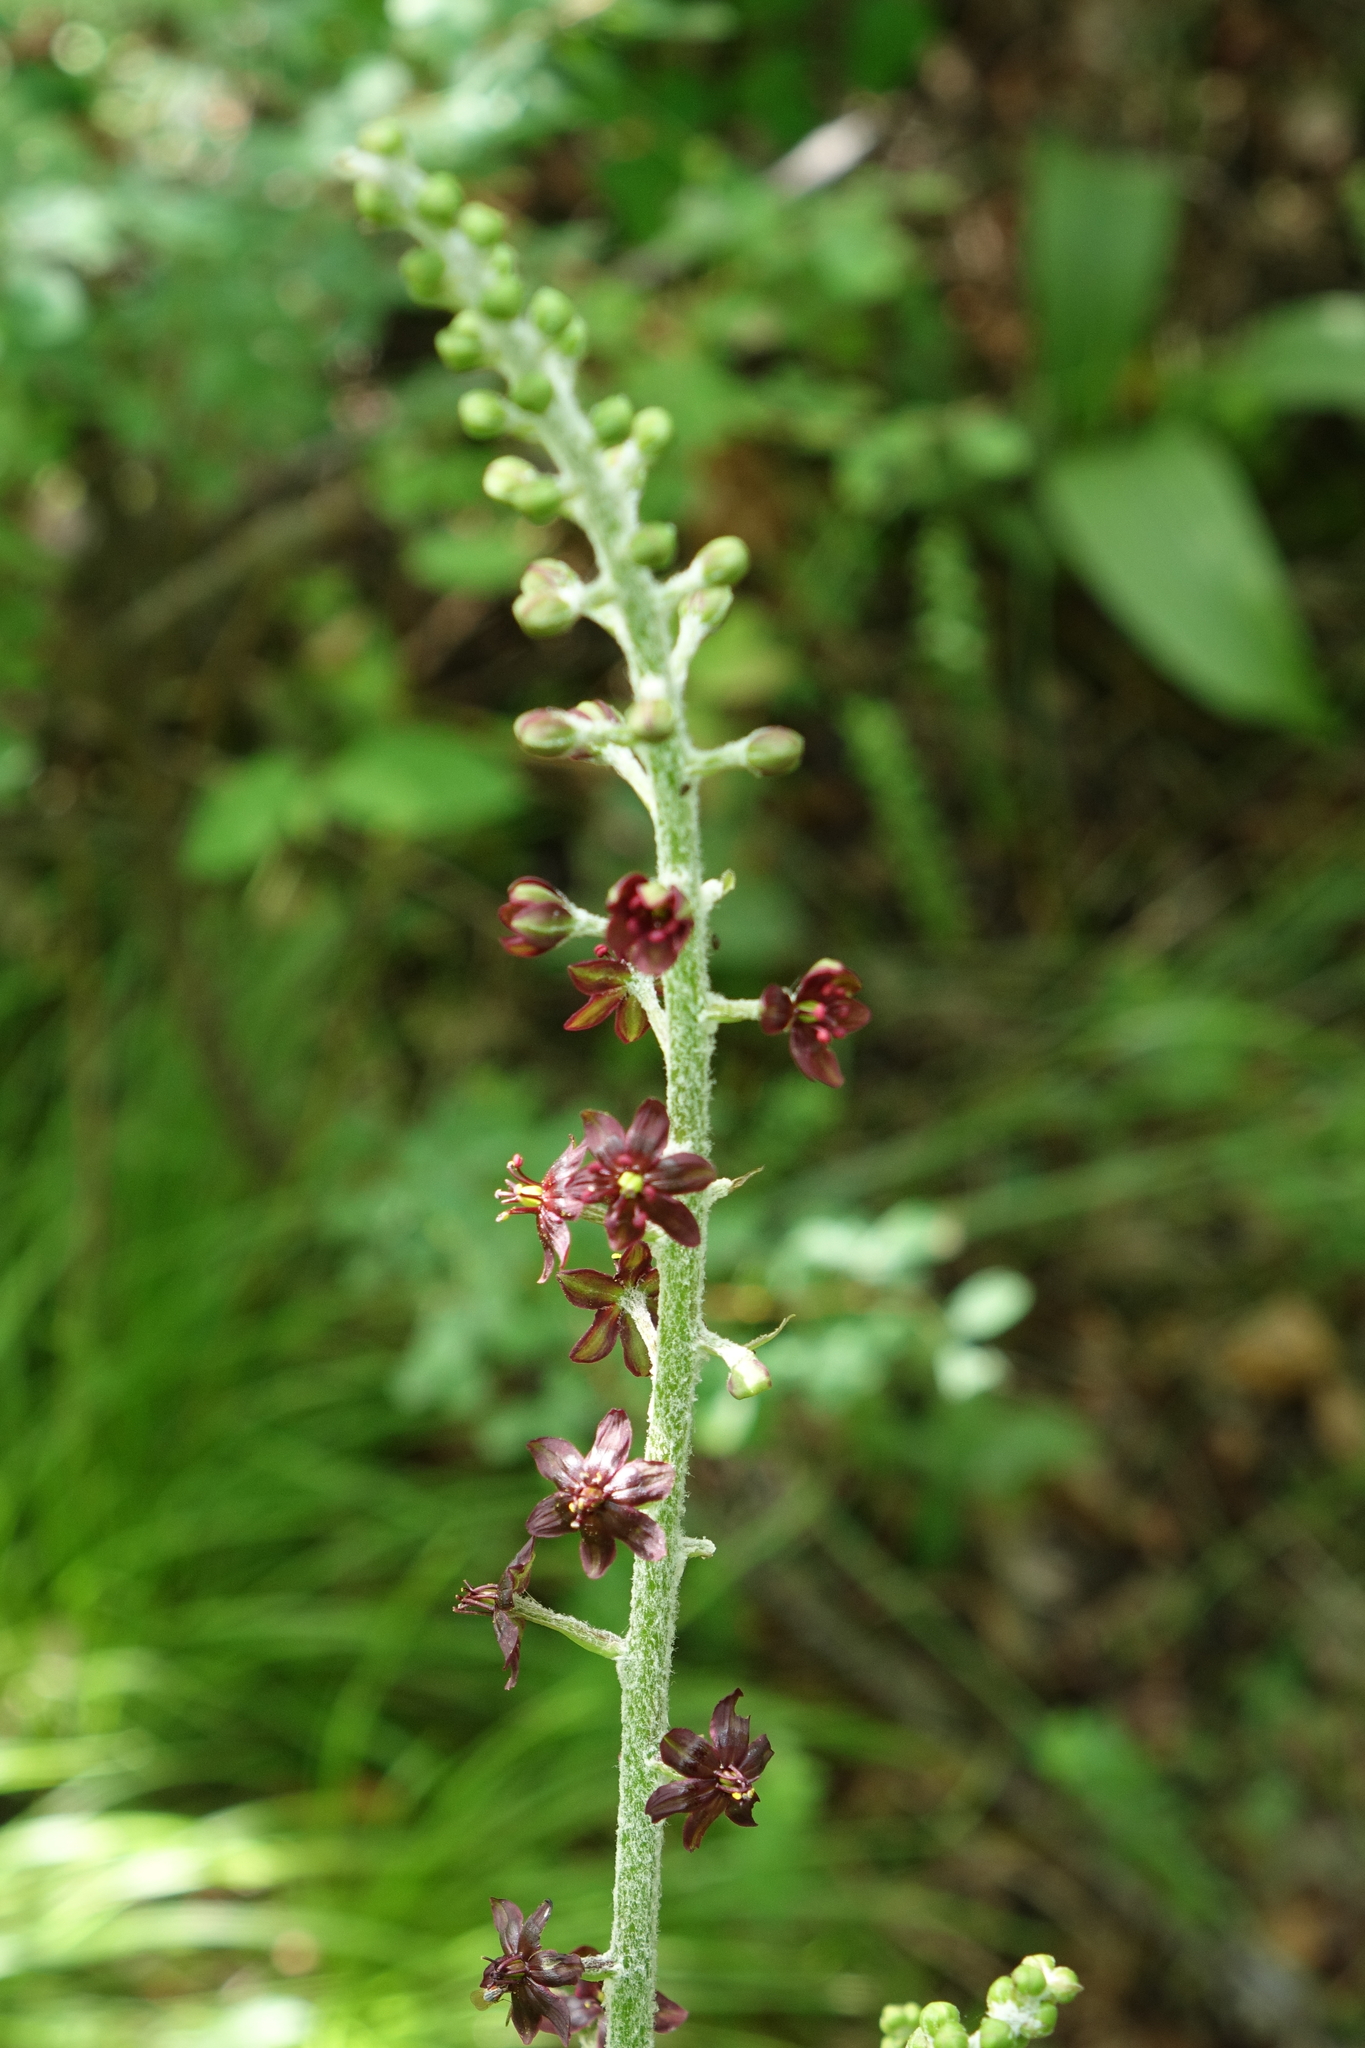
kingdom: Plantae
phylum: Tracheophyta
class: Liliopsida
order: Liliales
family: Melanthiaceae
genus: Veratrum
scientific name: Veratrum nigrum
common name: Black veratrum
